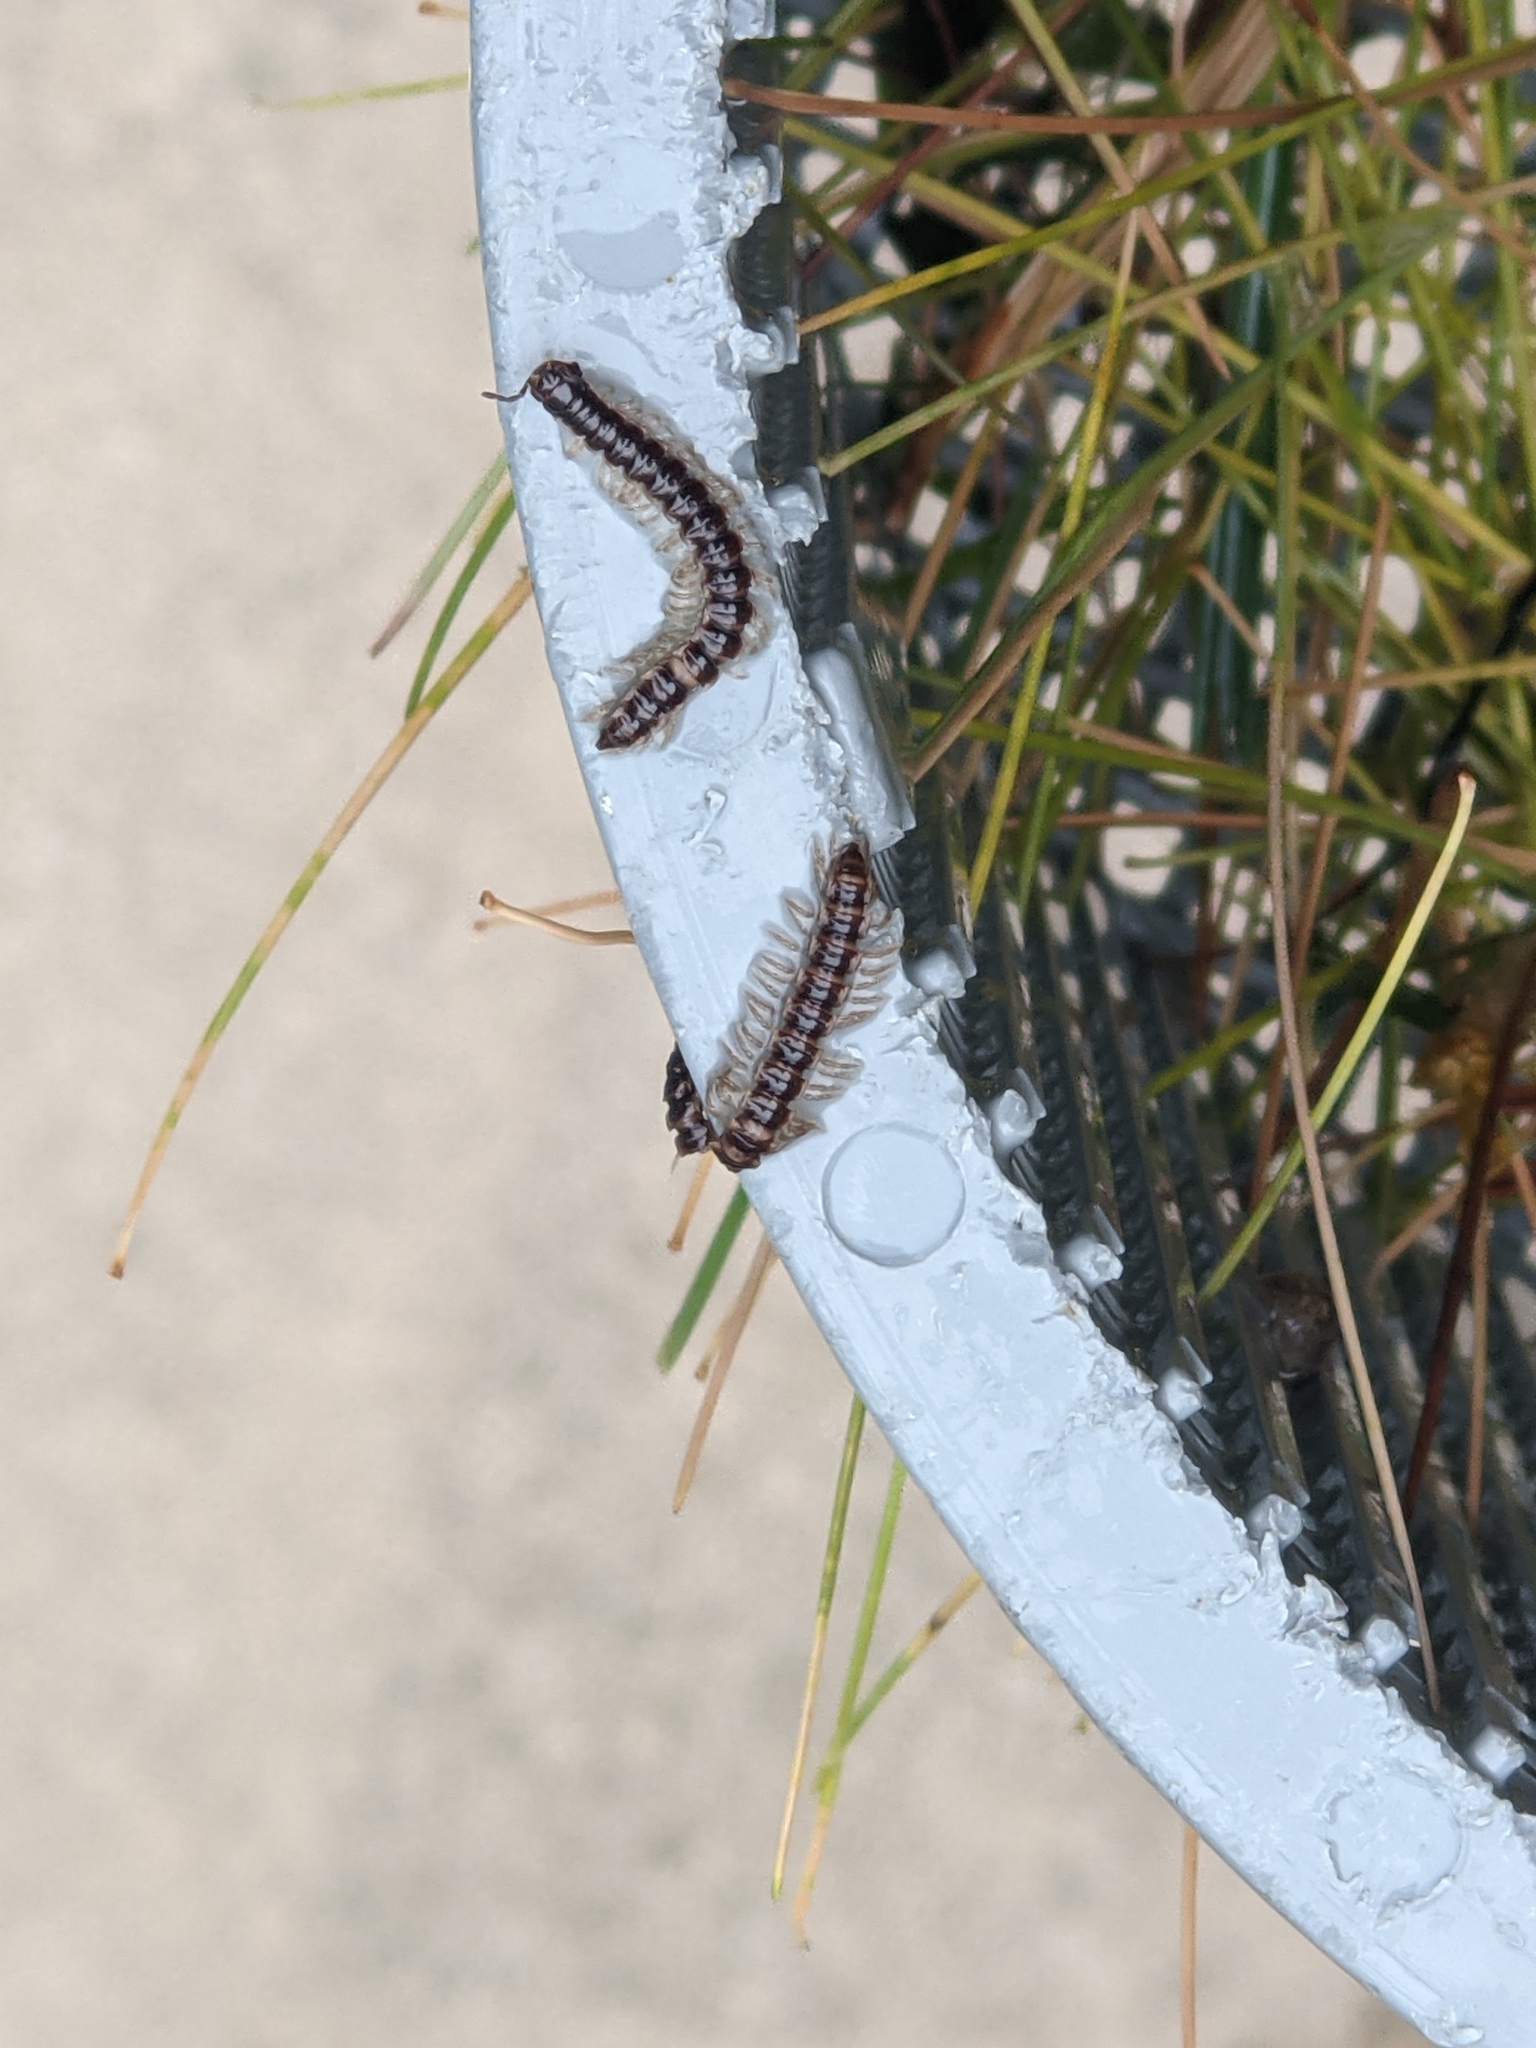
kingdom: Animalia
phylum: Arthropoda
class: Diplopoda
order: Polydesmida
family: Paradoxosomatidae
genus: Oxidus
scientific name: Oxidus gracilis
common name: Greenhouse millipede
